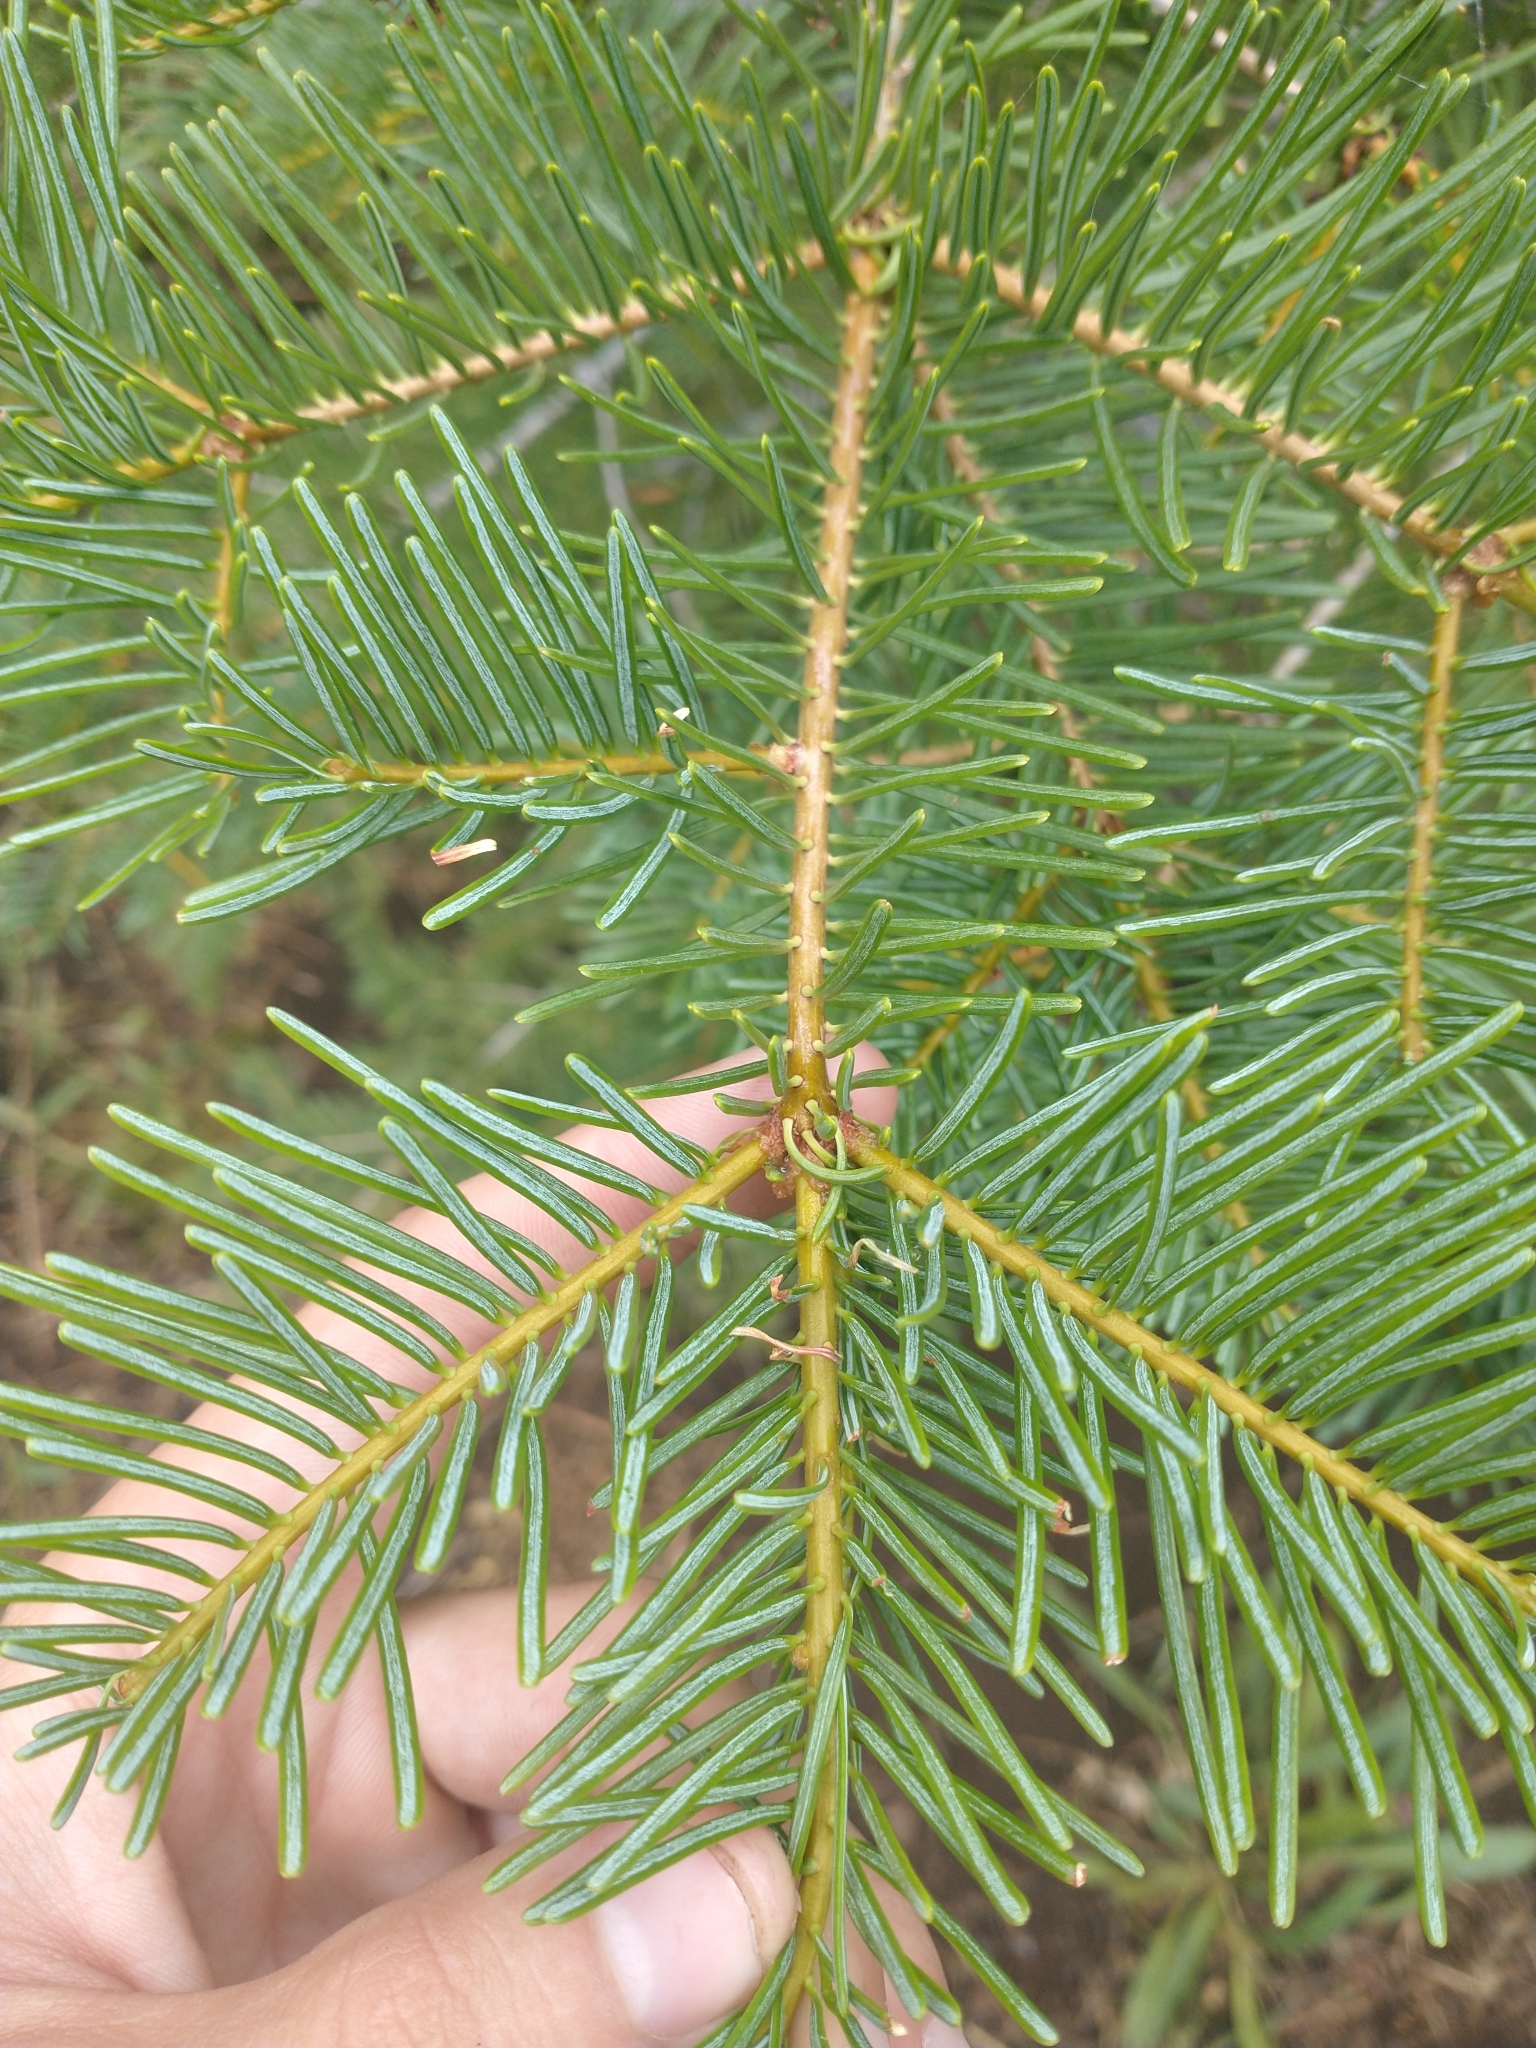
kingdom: Plantae
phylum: Tracheophyta
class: Pinopsida
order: Pinales
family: Pinaceae
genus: Abies
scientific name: Abies concolor
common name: Colorado fir
